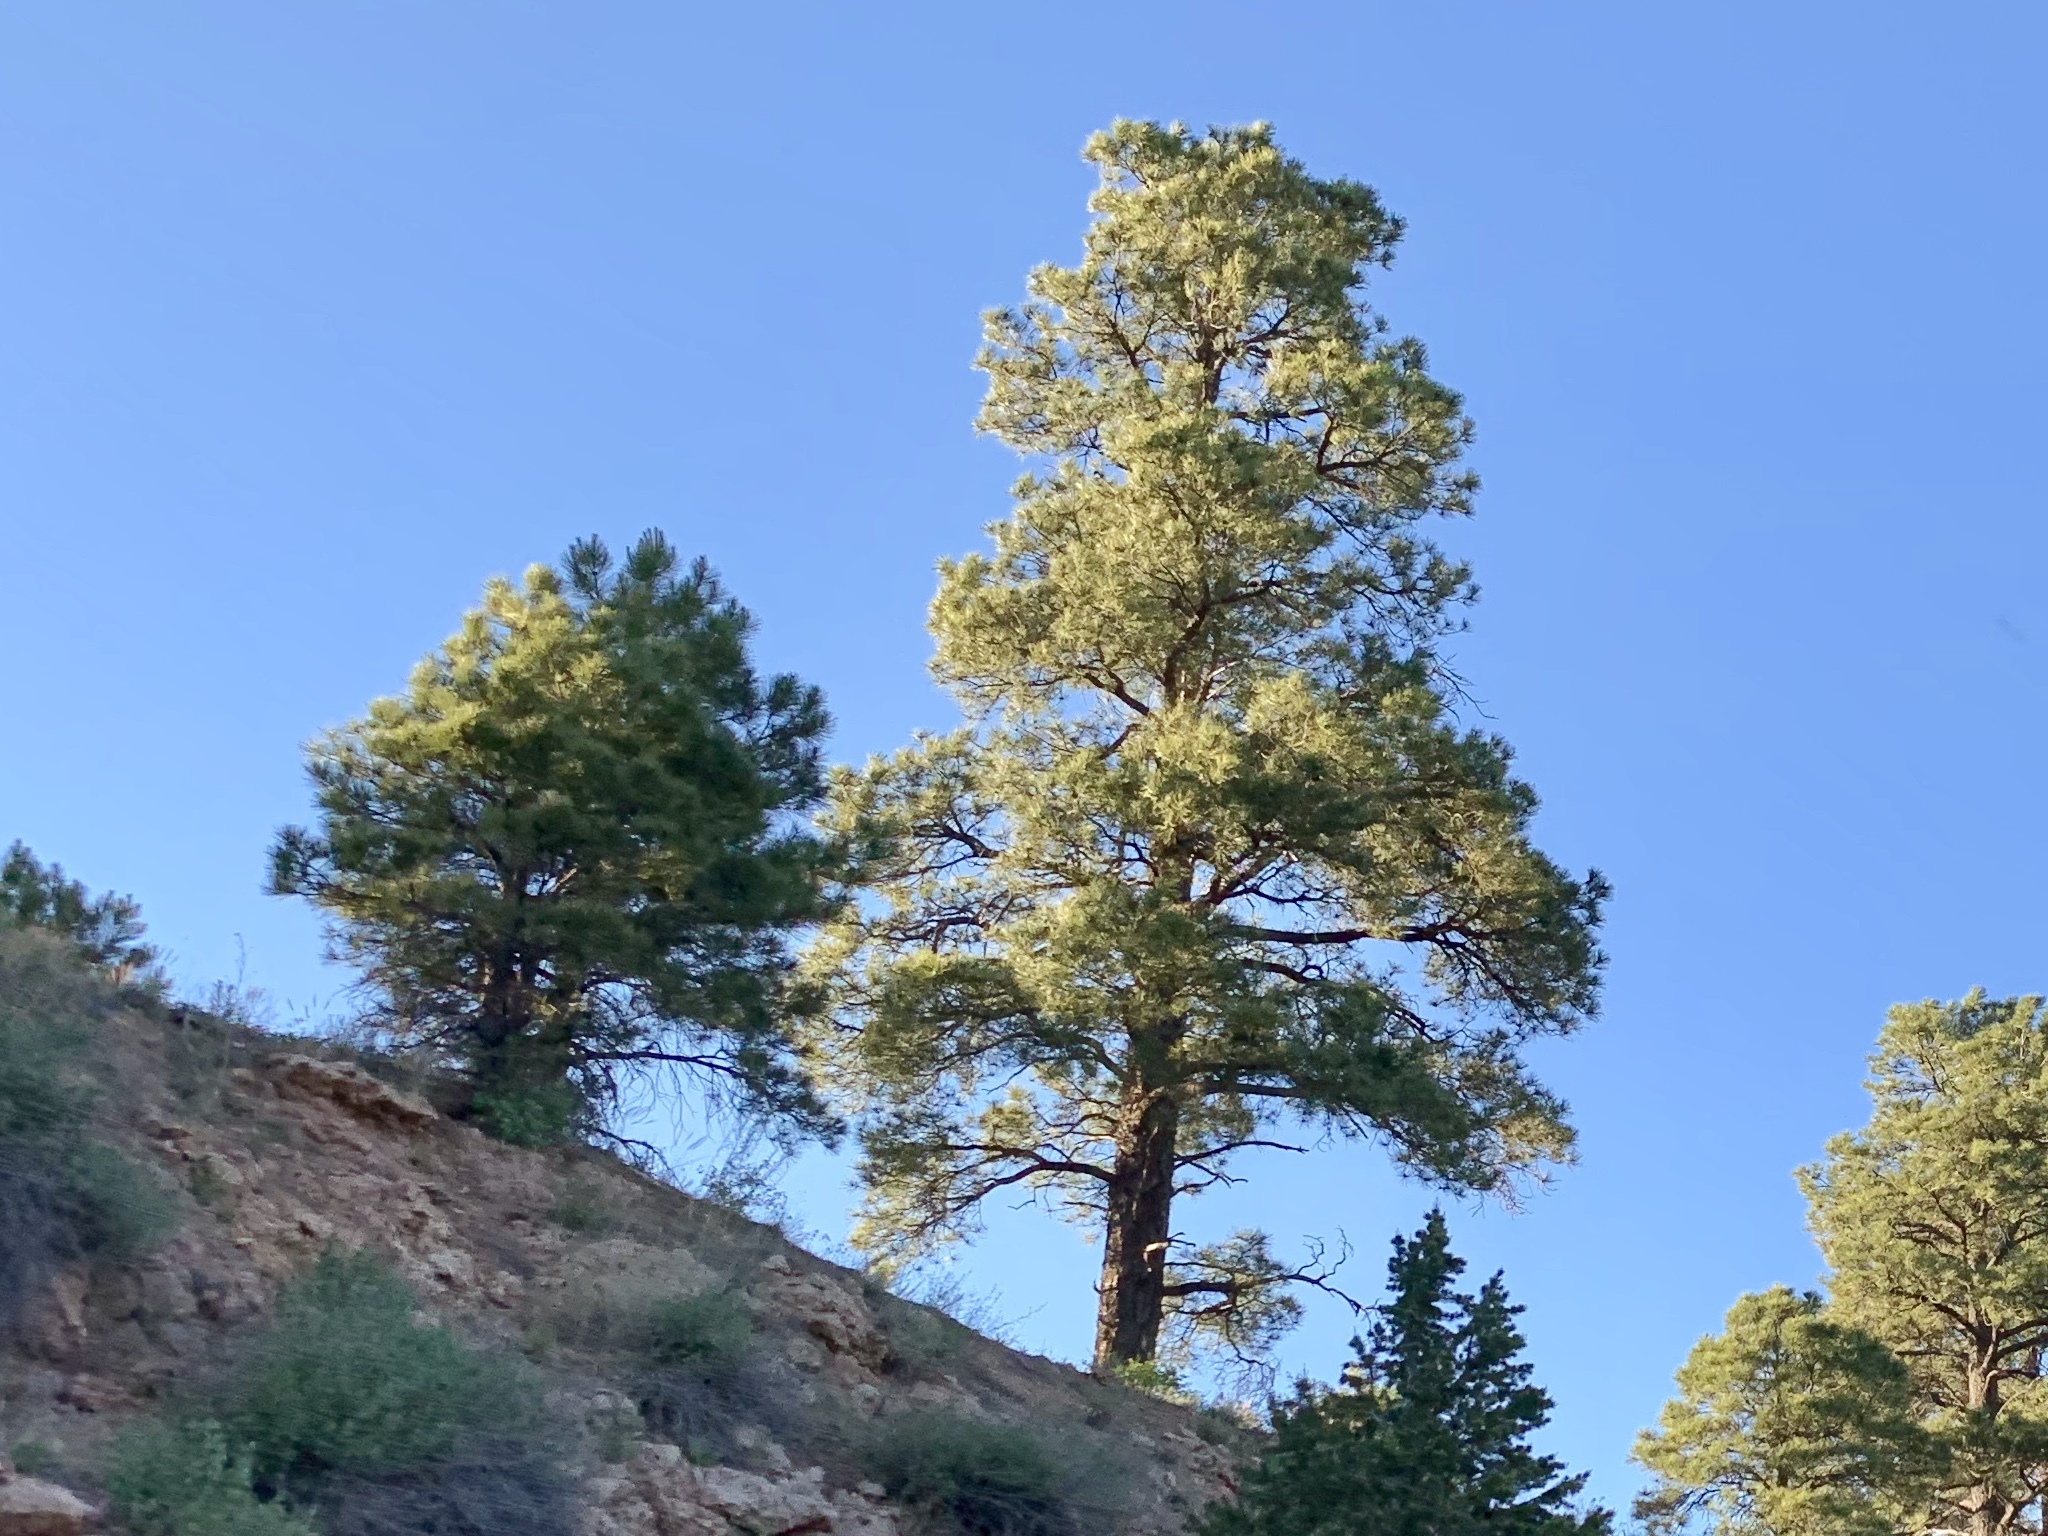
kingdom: Plantae
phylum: Tracheophyta
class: Pinopsida
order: Pinales
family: Pinaceae
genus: Pinus
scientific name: Pinus ponderosa
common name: Western yellow-pine
